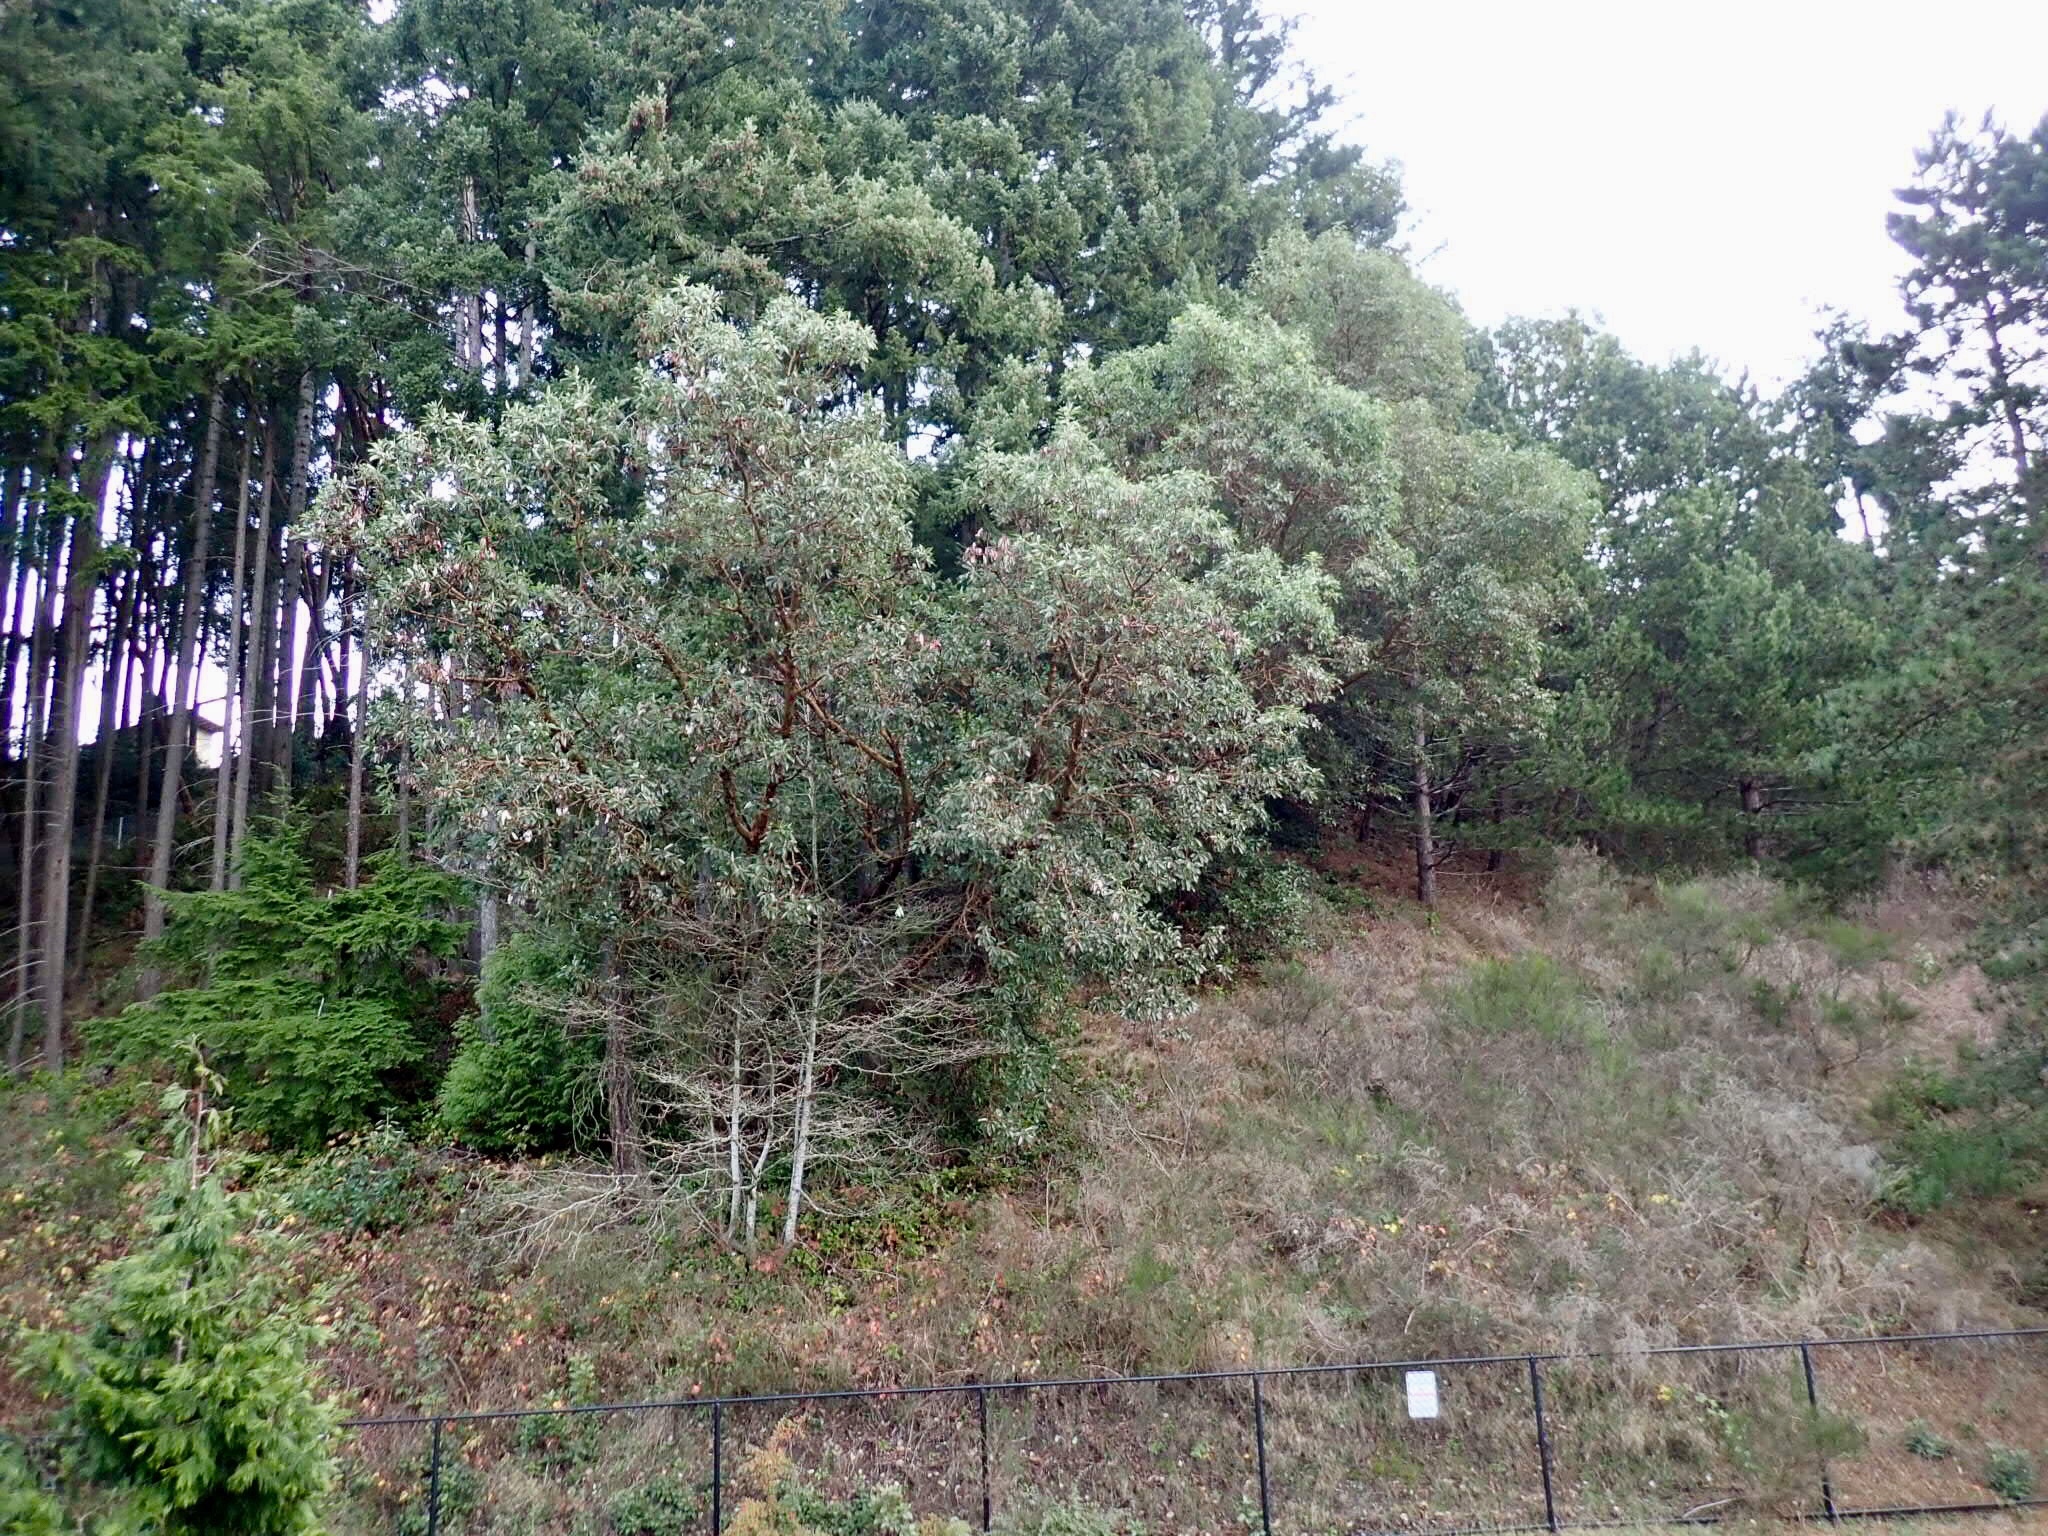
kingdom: Plantae
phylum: Tracheophyta
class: Magnoliopsida
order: Ericales
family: Ericaceae
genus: Arbutus
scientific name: Arbutus menziesii
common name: Pacific madrone
